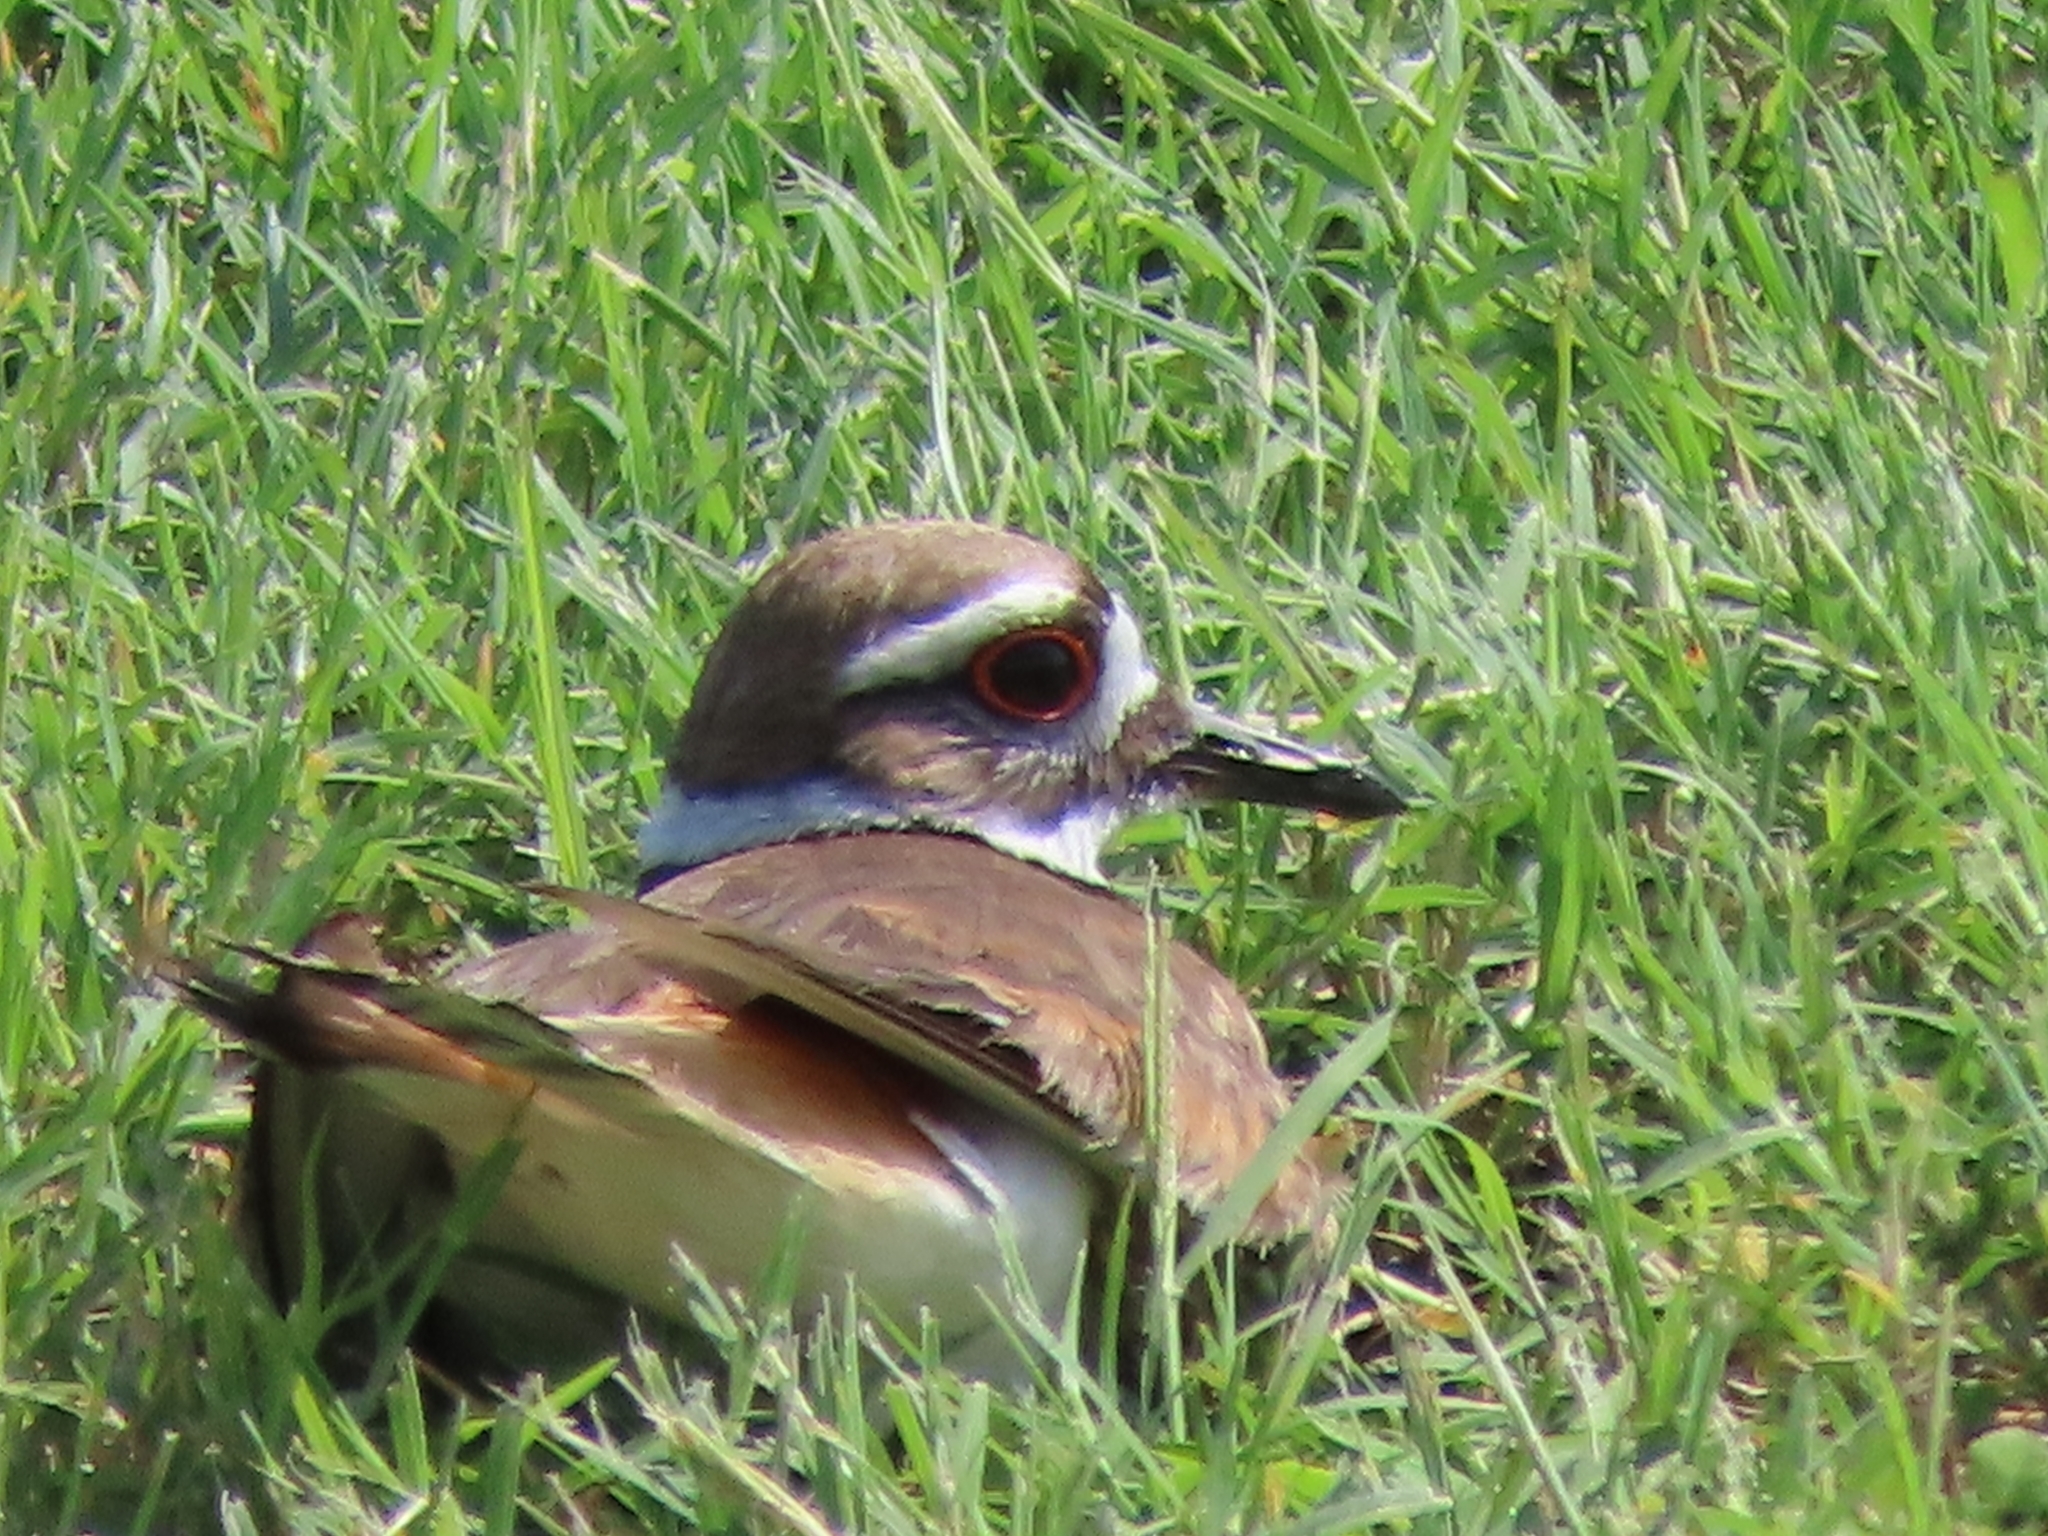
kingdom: Animalia
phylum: Chordata
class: Aves
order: Charadriiformes
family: Charadriidae
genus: Charadrius
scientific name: Charadrius vociferus
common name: Killdeer
